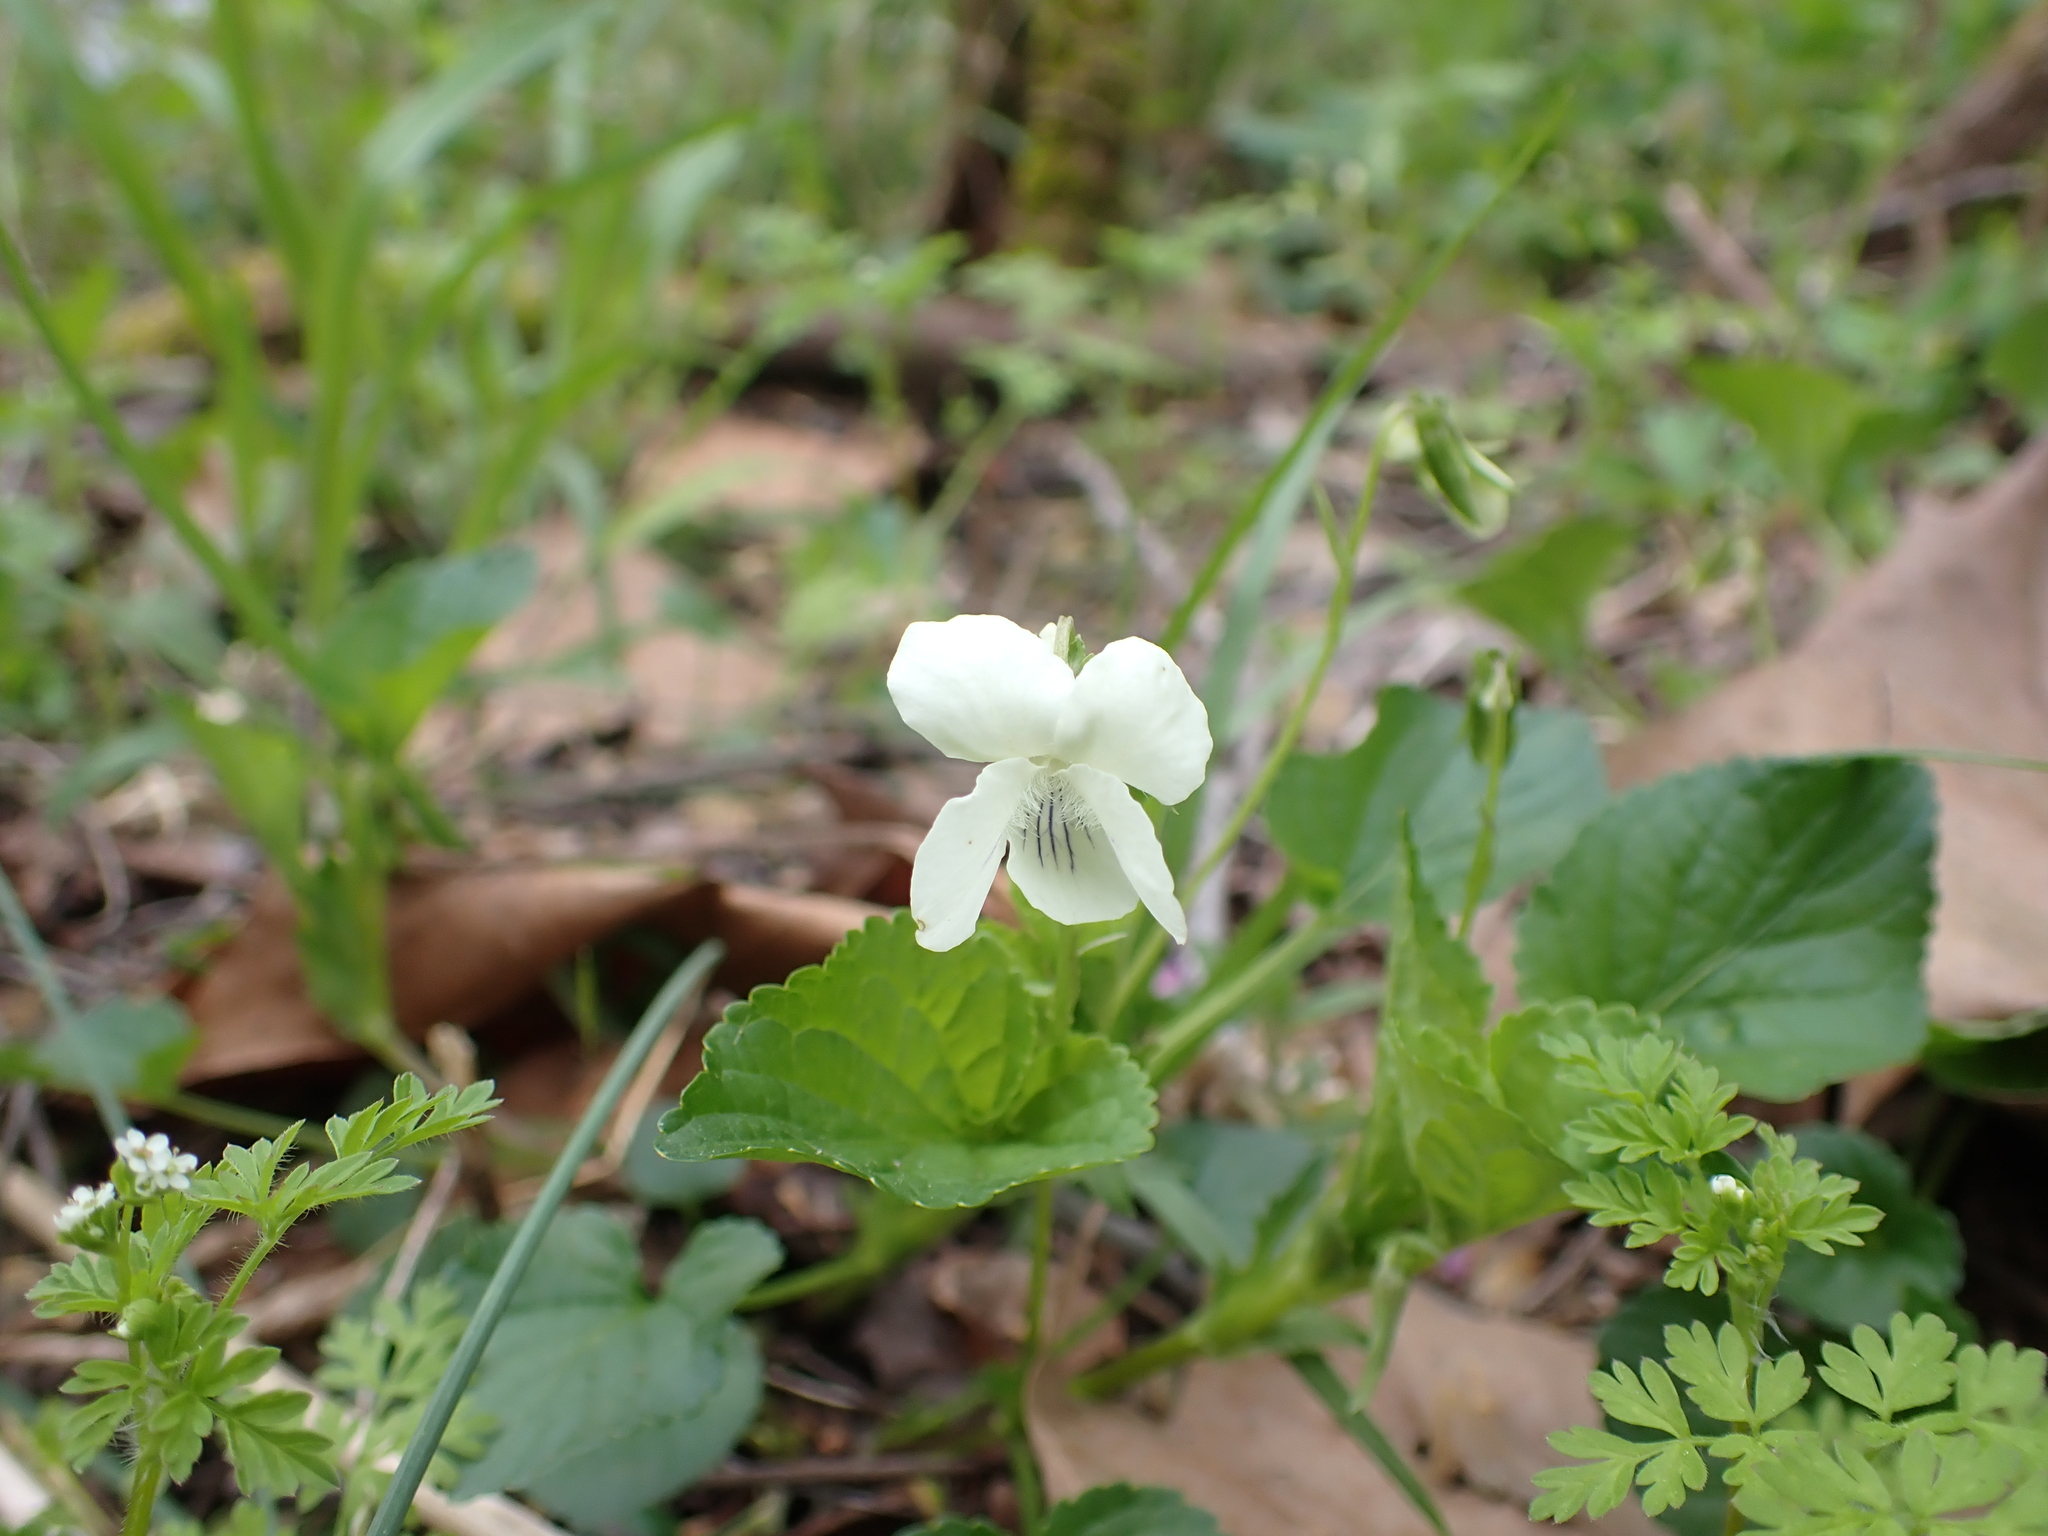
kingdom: Plantae
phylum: Tracheophyta
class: Magnoliopsida
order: Malpighiales
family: Violaceae
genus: Viola
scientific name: Viola striata
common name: Cream violet
